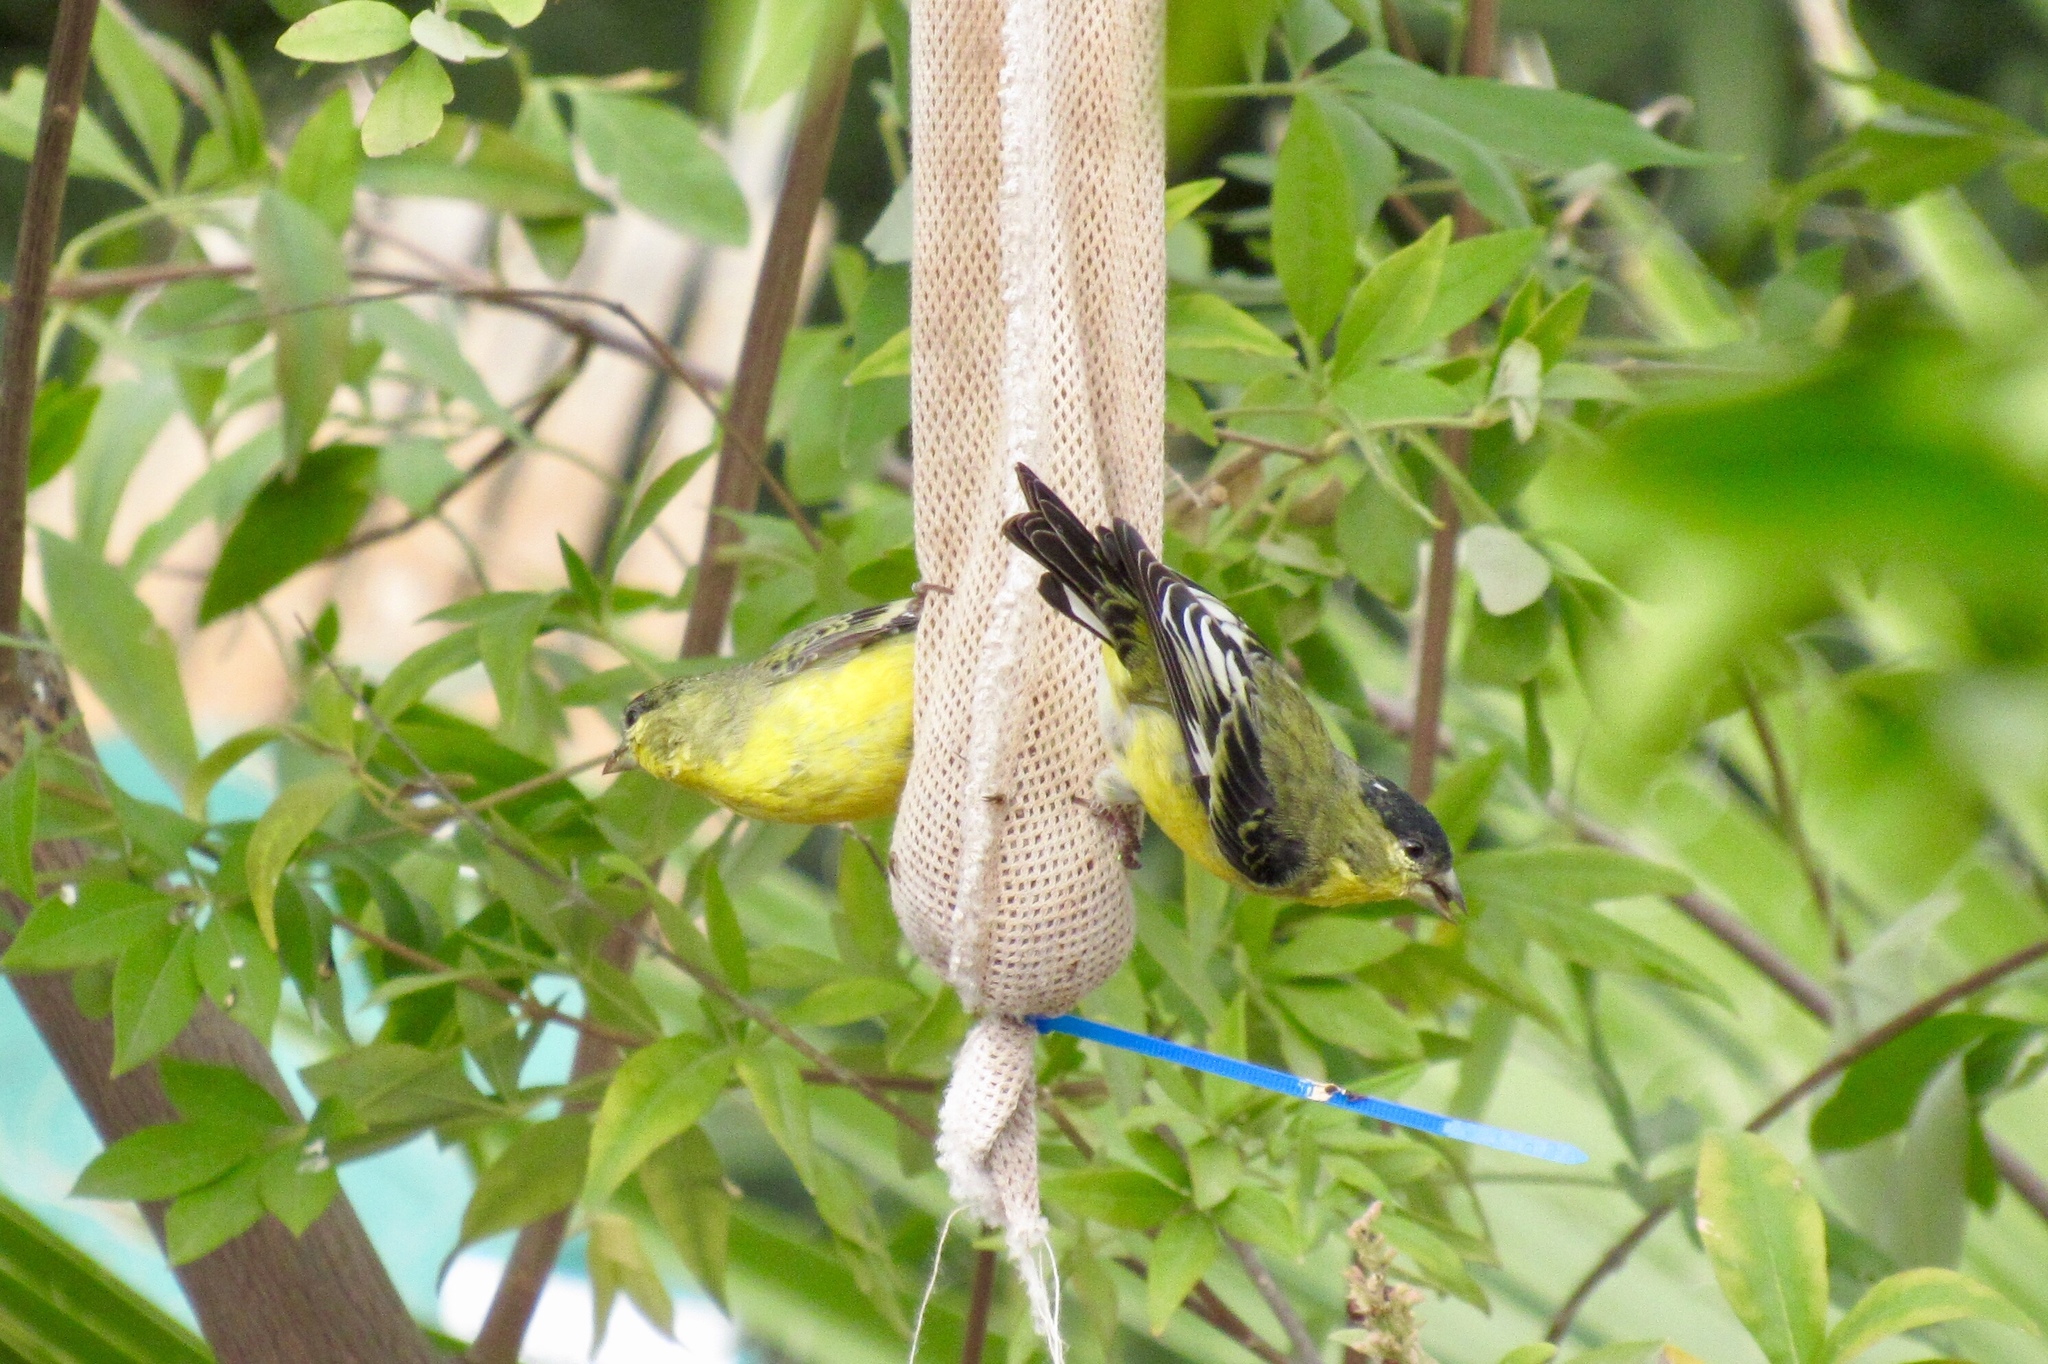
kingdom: Animalia
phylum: Chordata
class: Aves
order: Passeriformes
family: Fringillidae
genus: Spinus
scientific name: Spinus psaltria
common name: Lesser goldfinch
